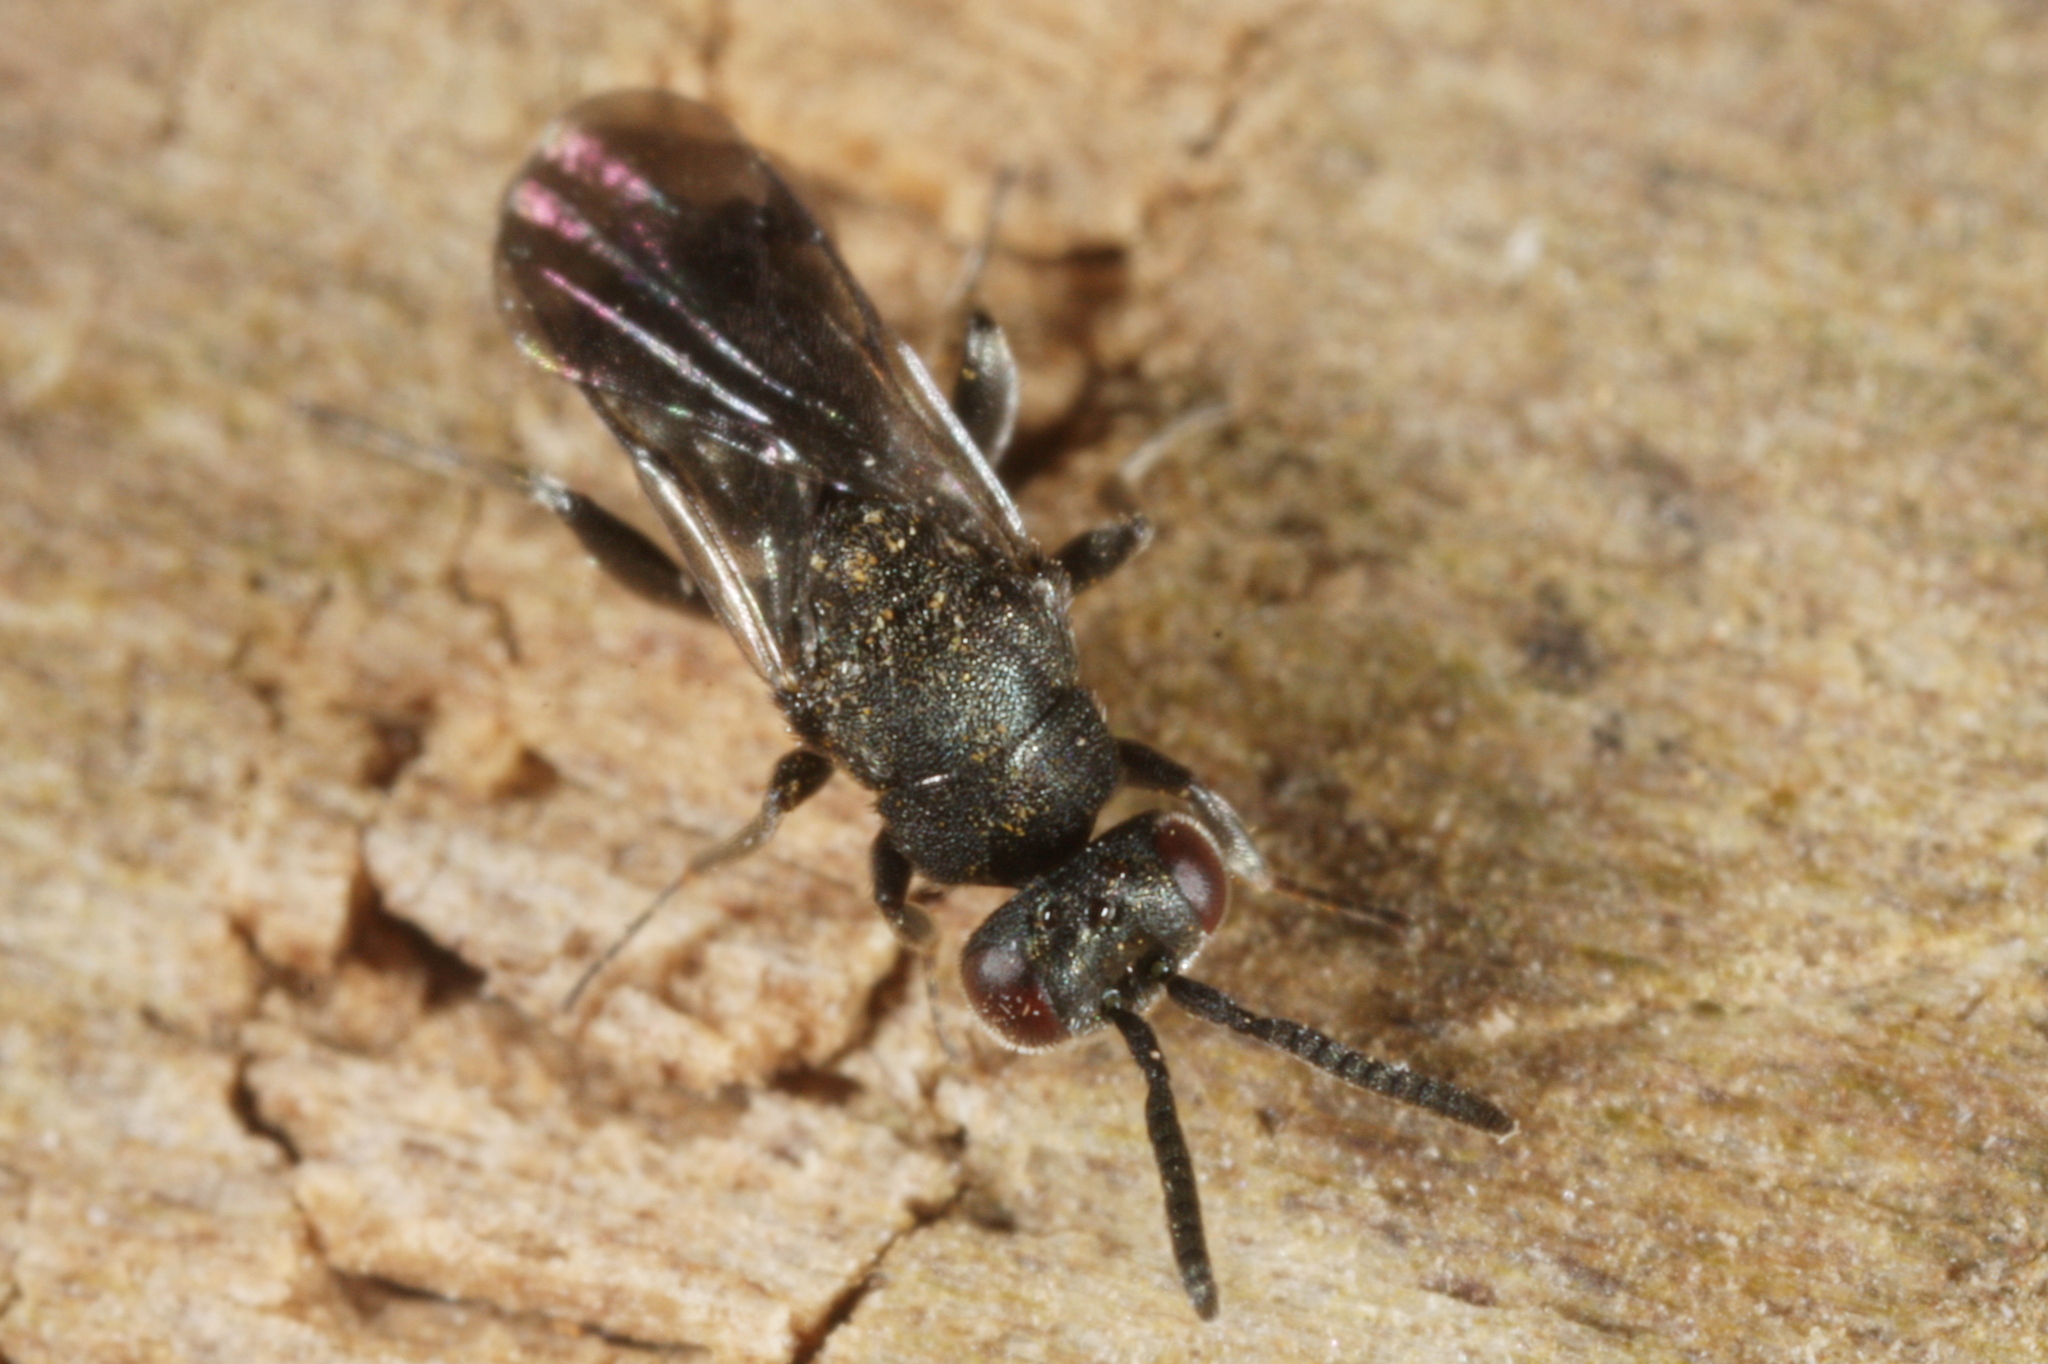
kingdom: Animalia
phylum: Arthropoda
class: Insecta
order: Hymenoptera
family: Torymidae
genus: Glyphomerus
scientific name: Glyphomerus stigma
